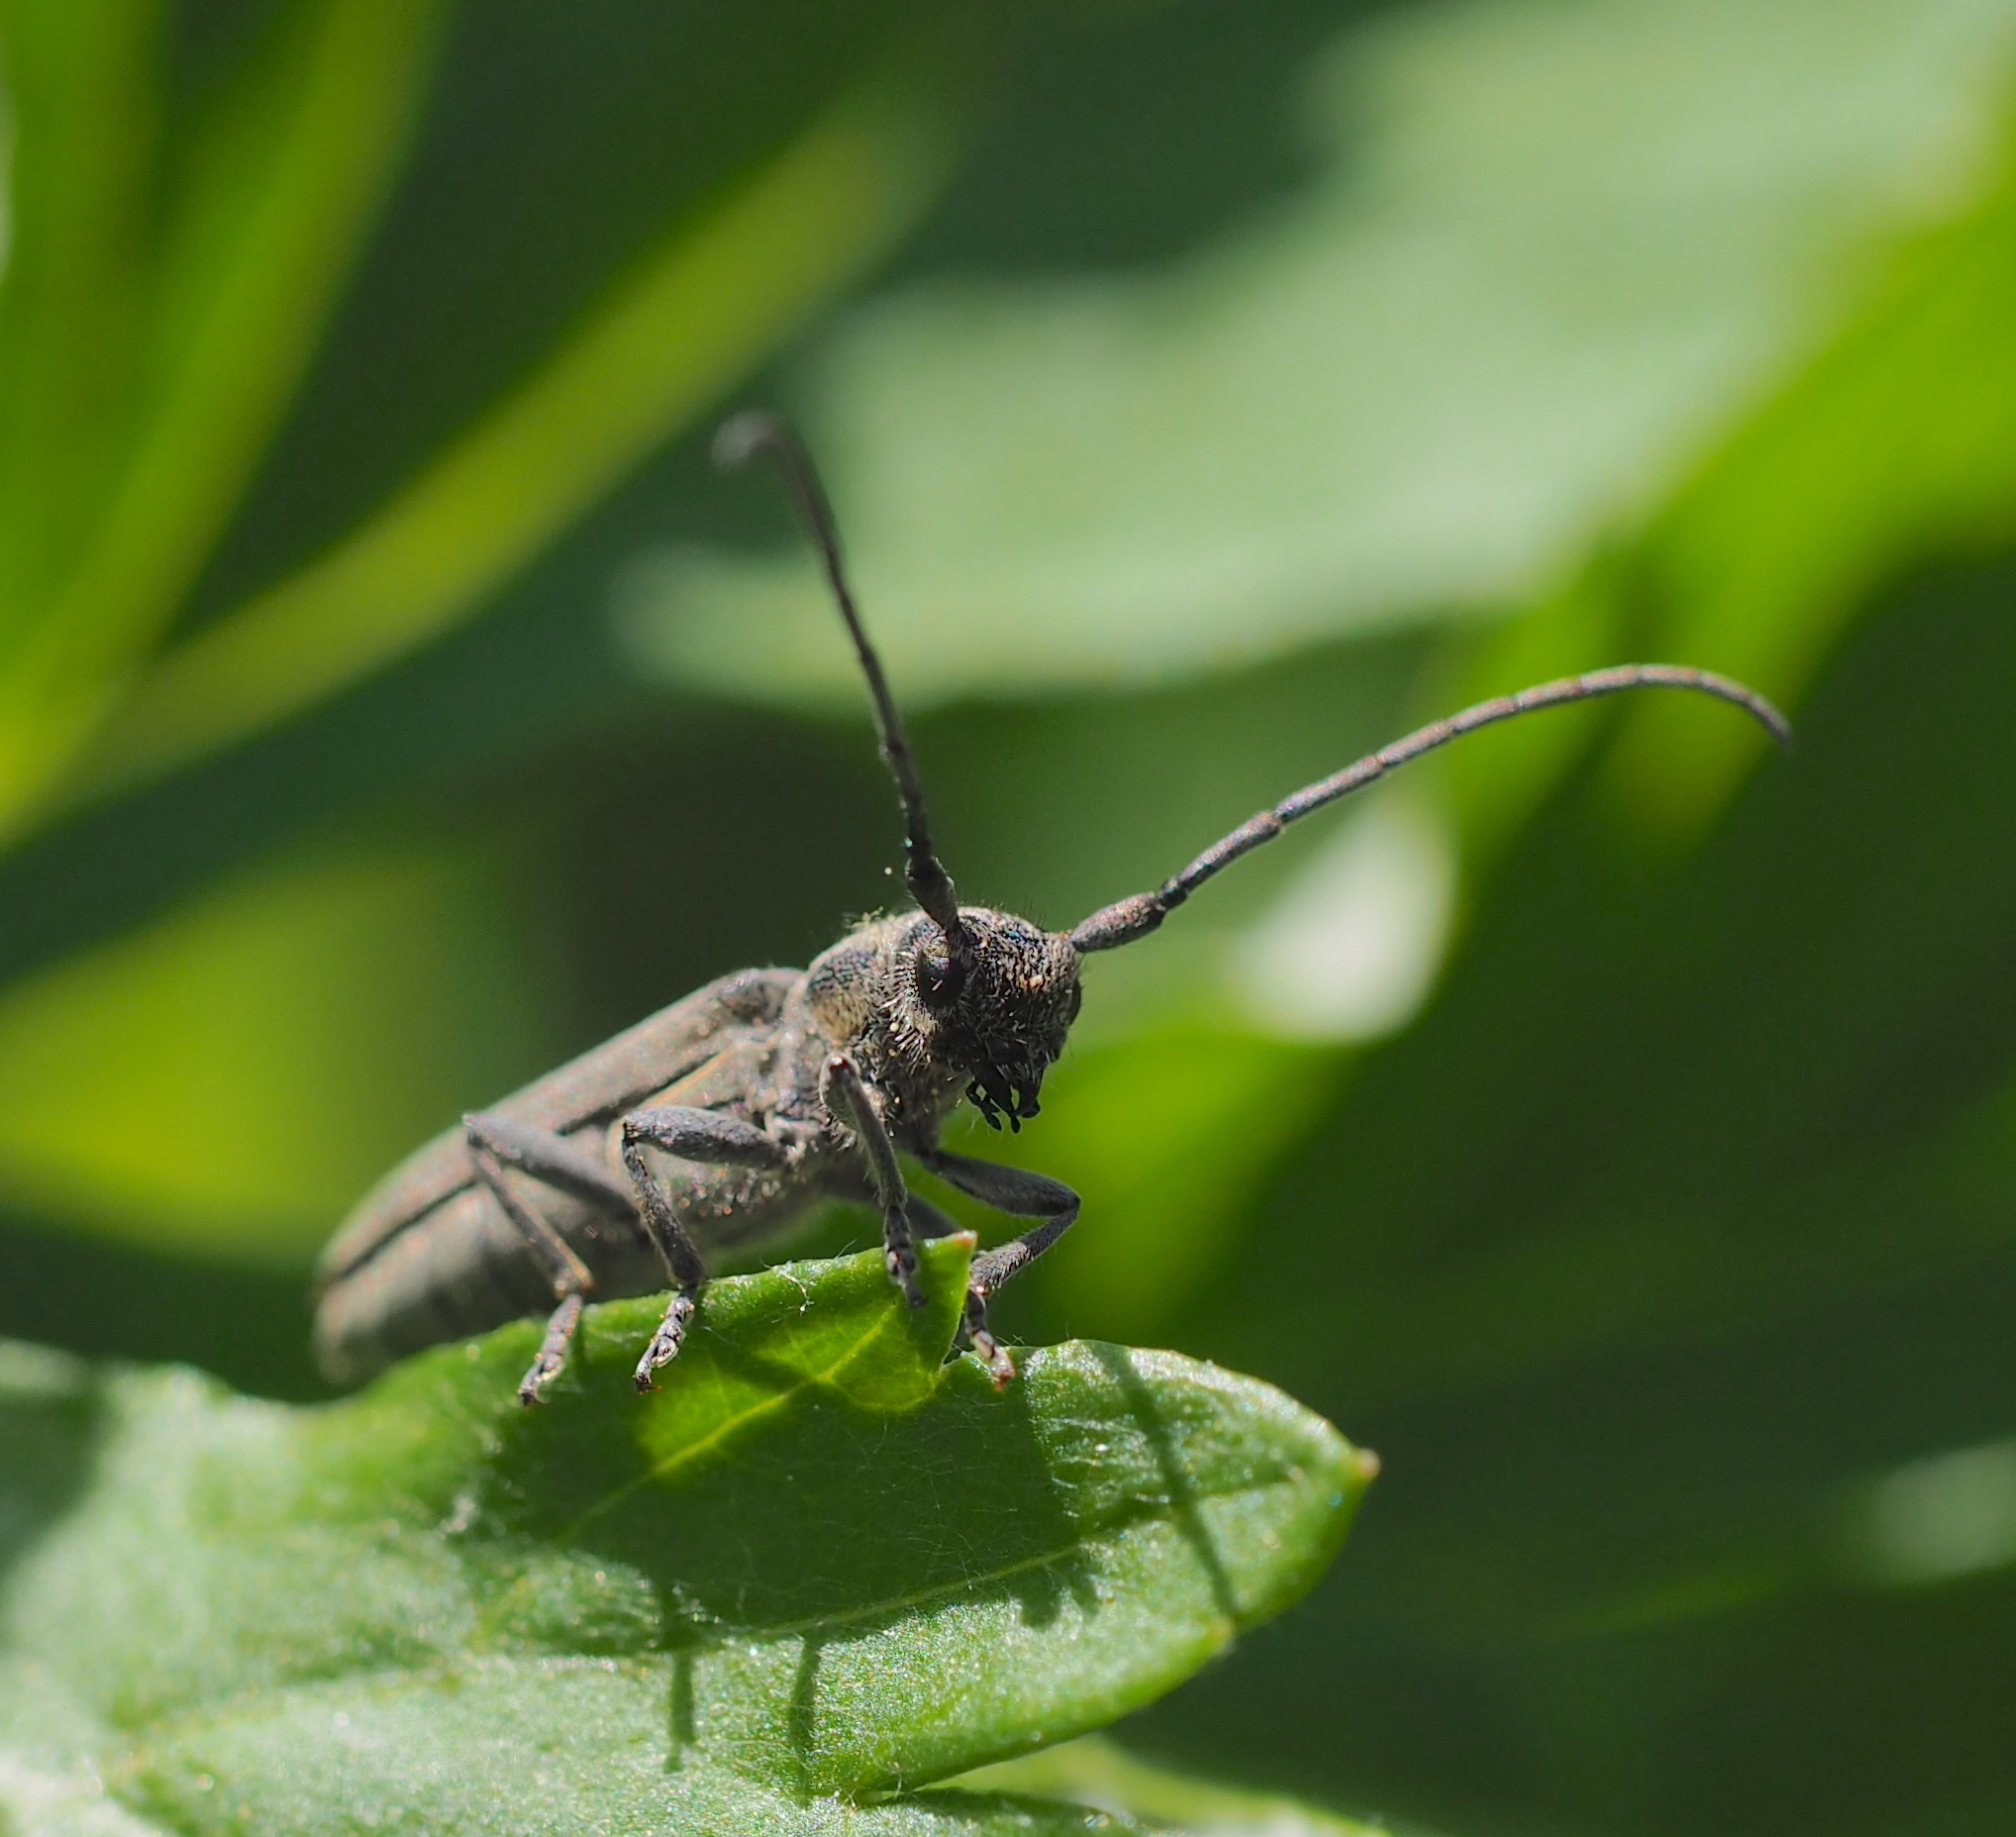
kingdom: Animalia
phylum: Arthropoda
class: Insecta
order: Coleoptera
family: Cerambycidae
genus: Phytoecia
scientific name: Phytoecia nigricornis
